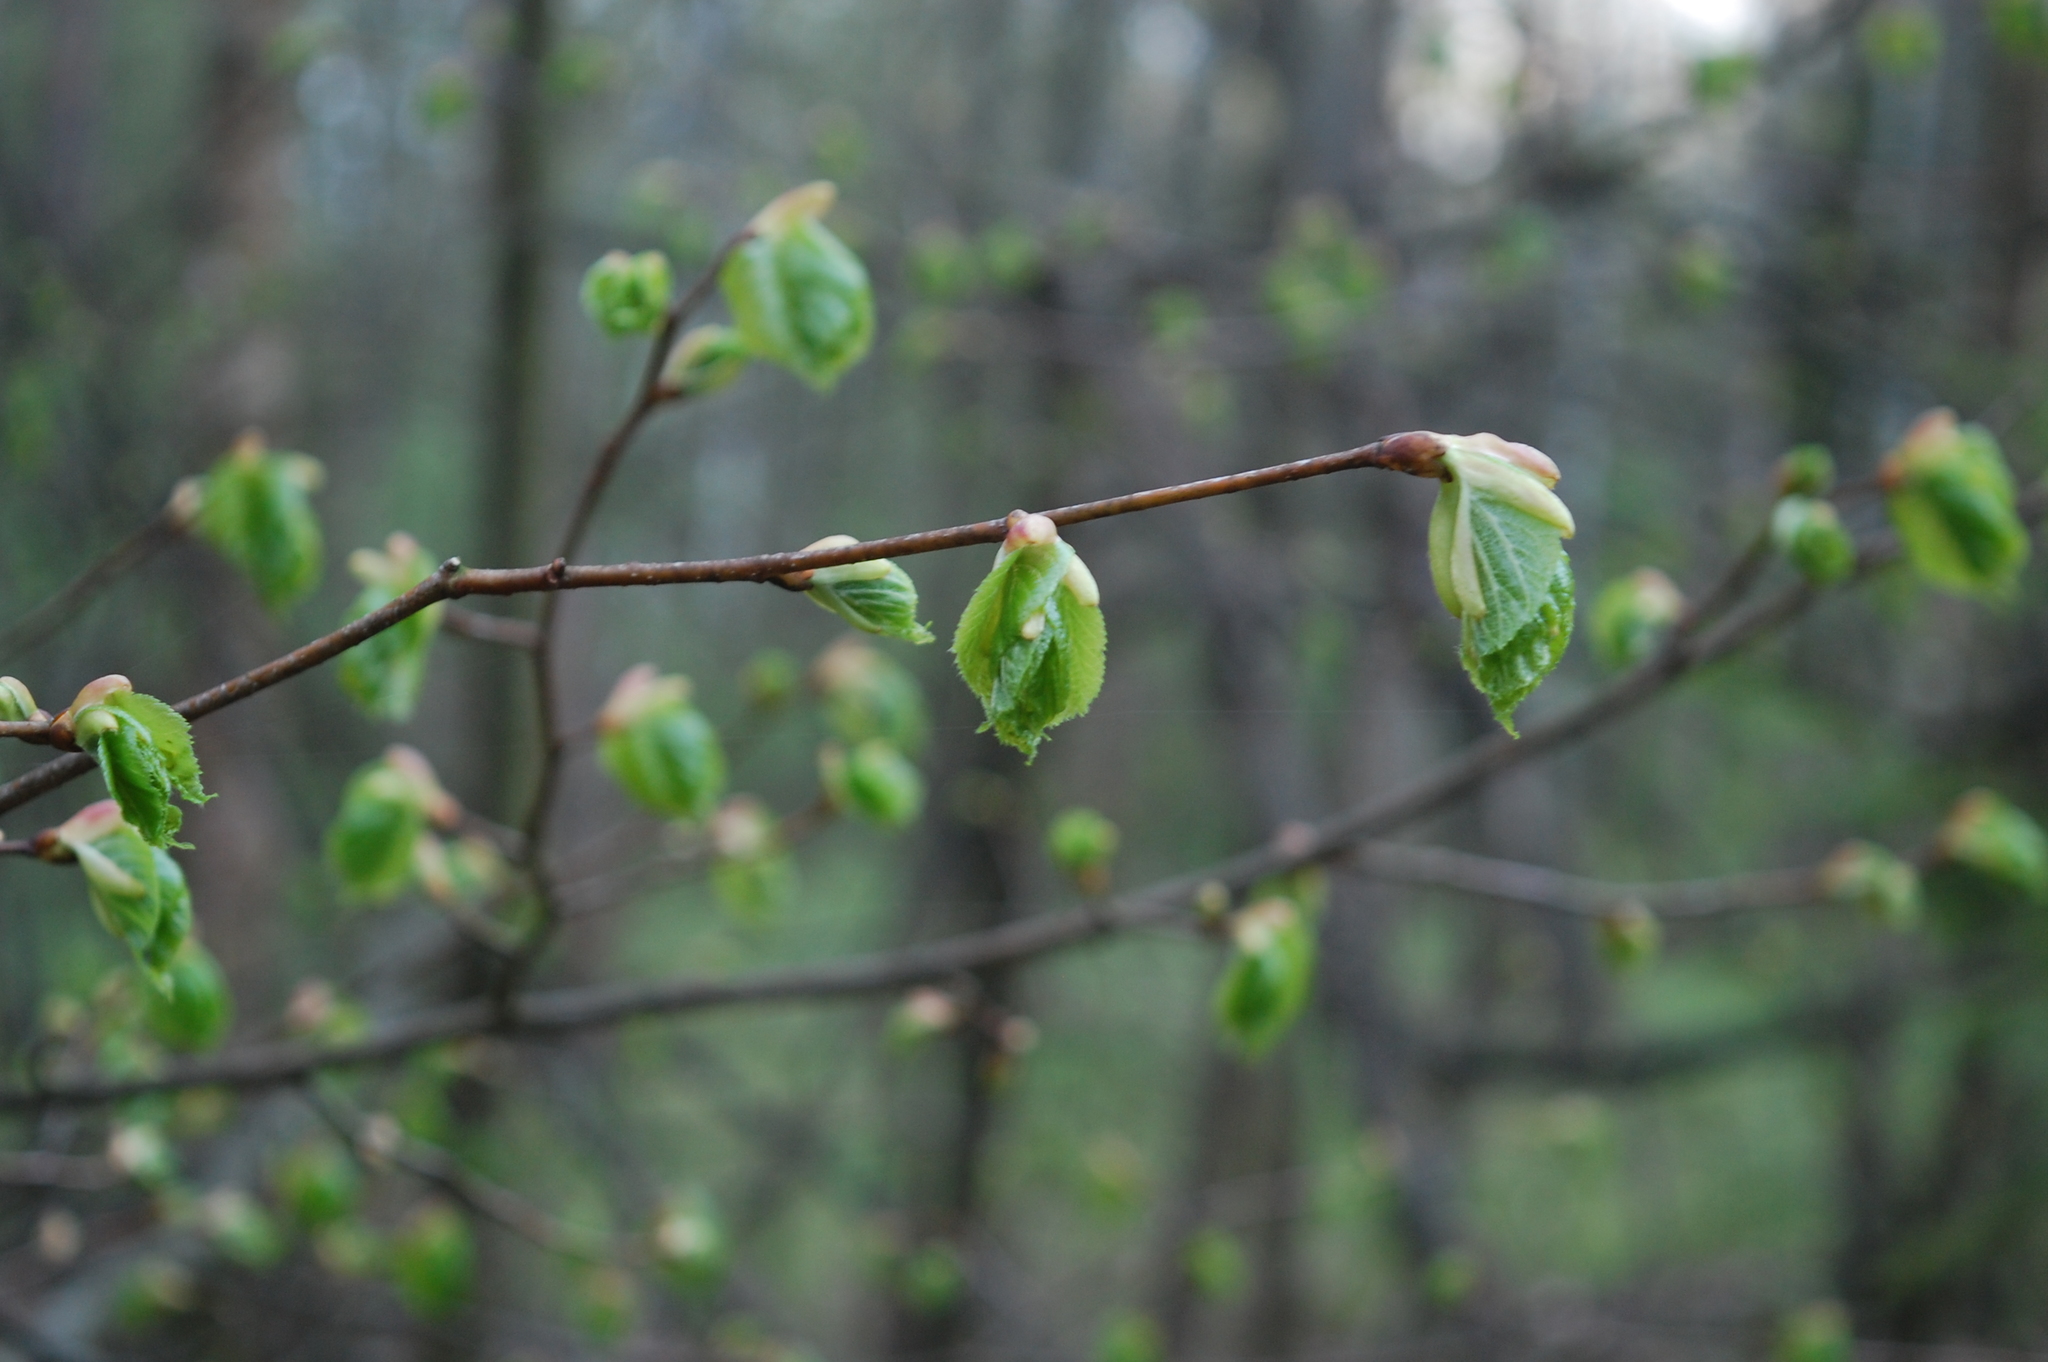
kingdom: Plantae
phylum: Tracheophyta
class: Magnoliopsida
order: Malvales
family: Malvaceae
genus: Tilia
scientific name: Tilia cordata
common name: Small-leaved lime
